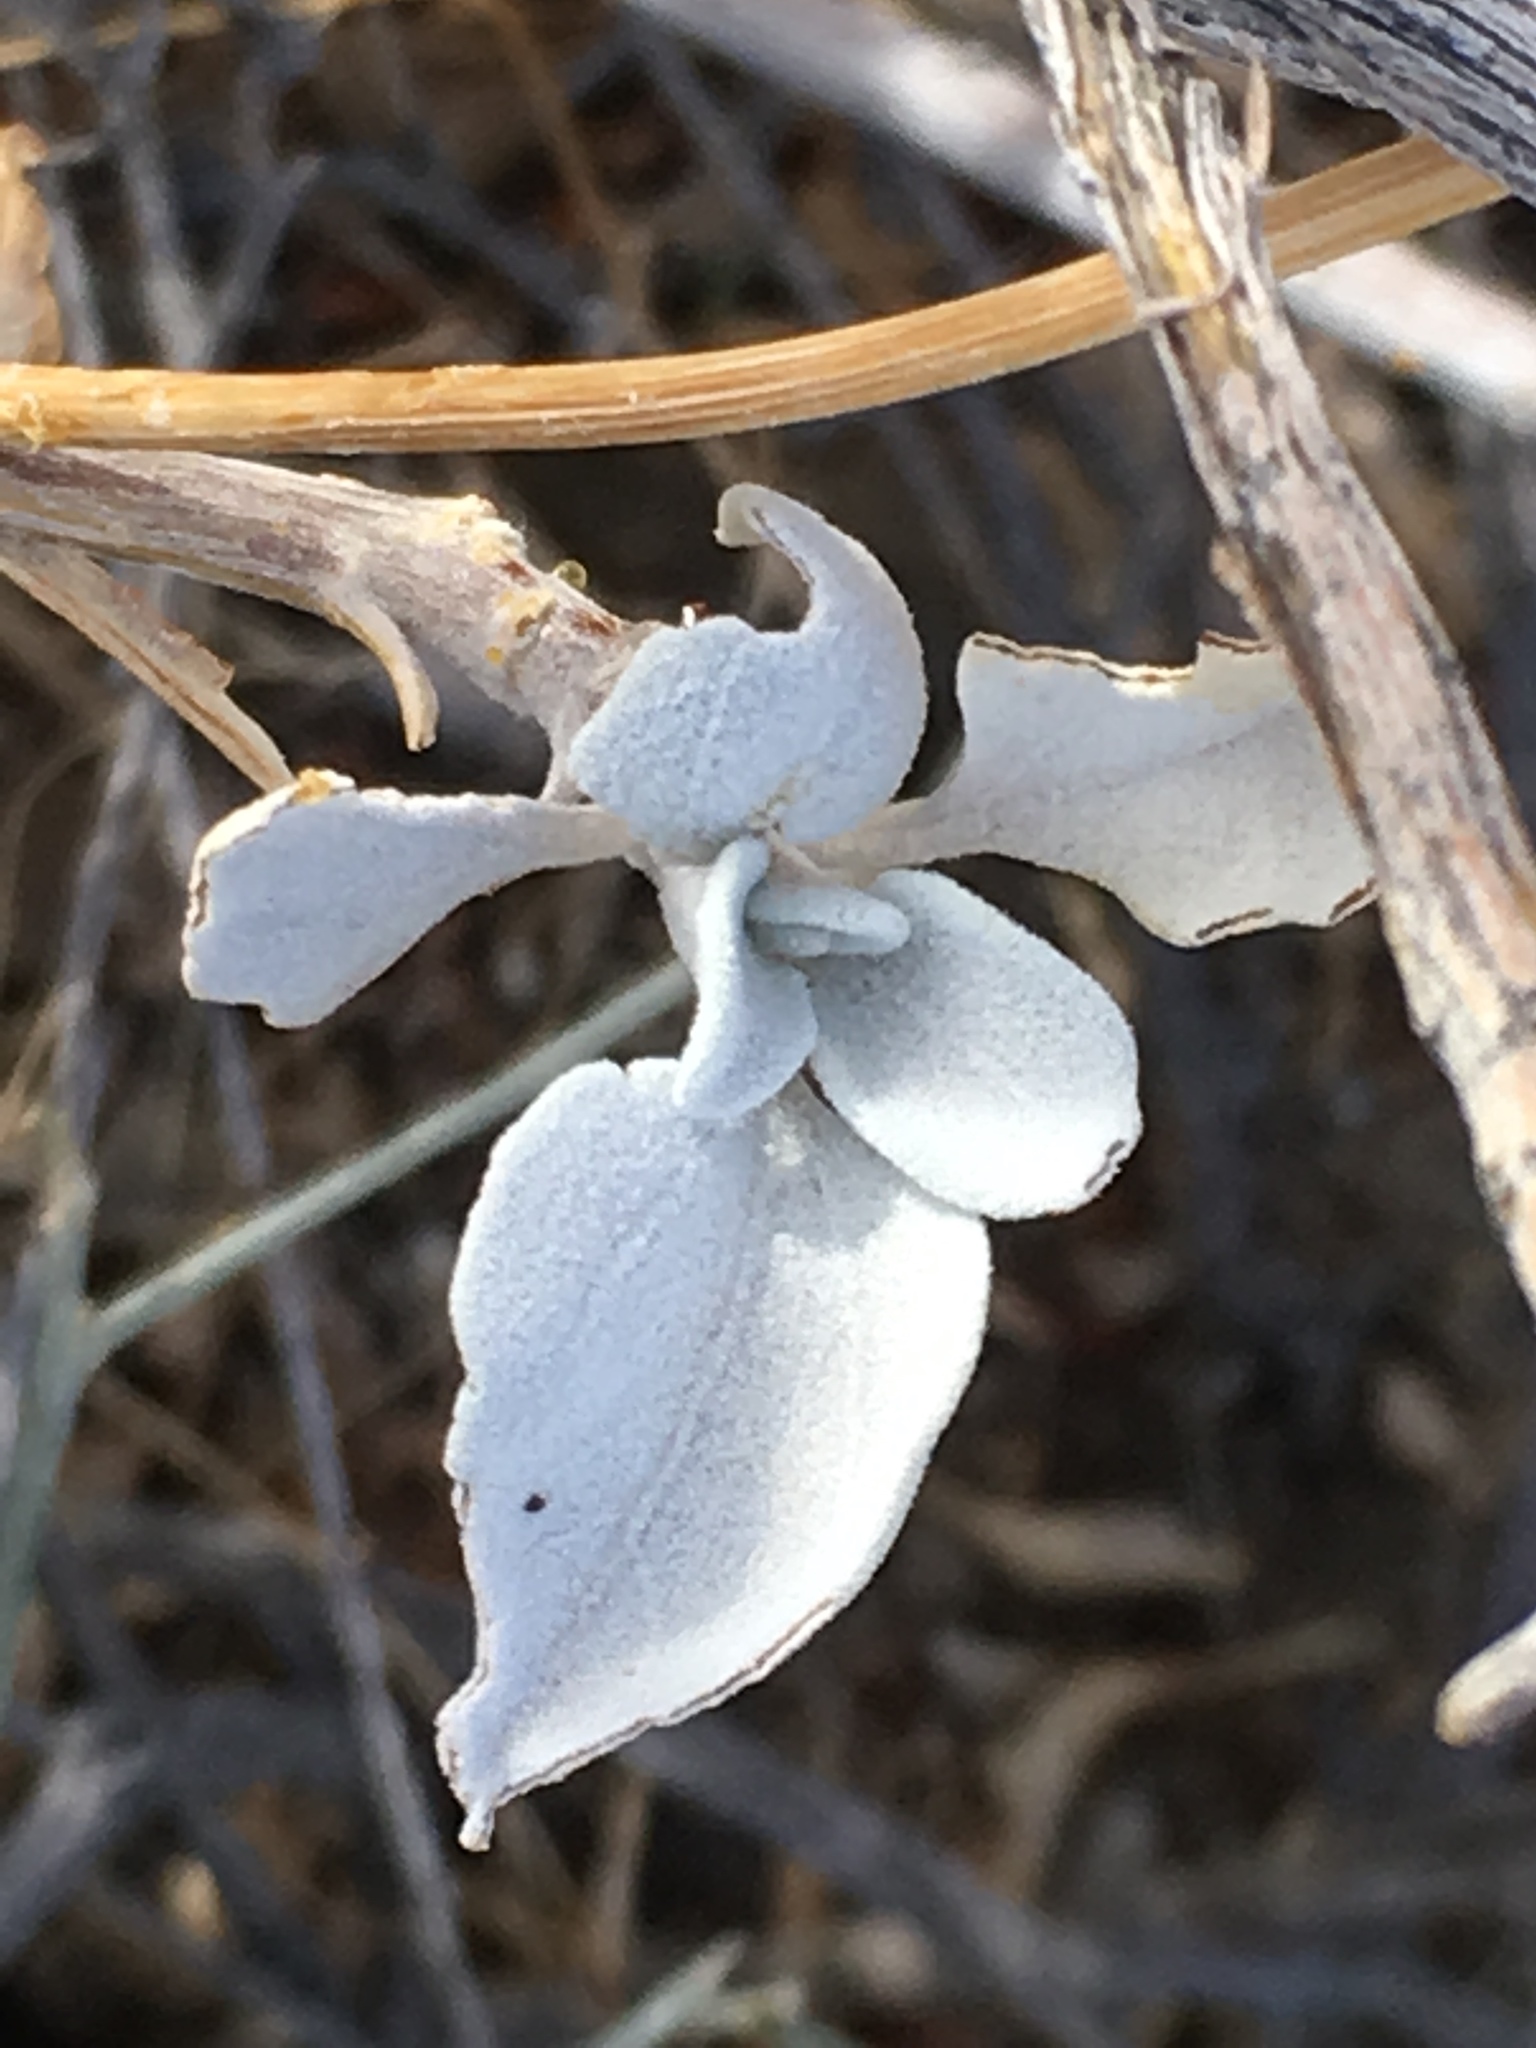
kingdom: Plantae
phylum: Tracheophyta
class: Magnoliopsida
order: Asterales
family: Asteraceae
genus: Encelia
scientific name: Encelia farinosa
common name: Brittlebush
